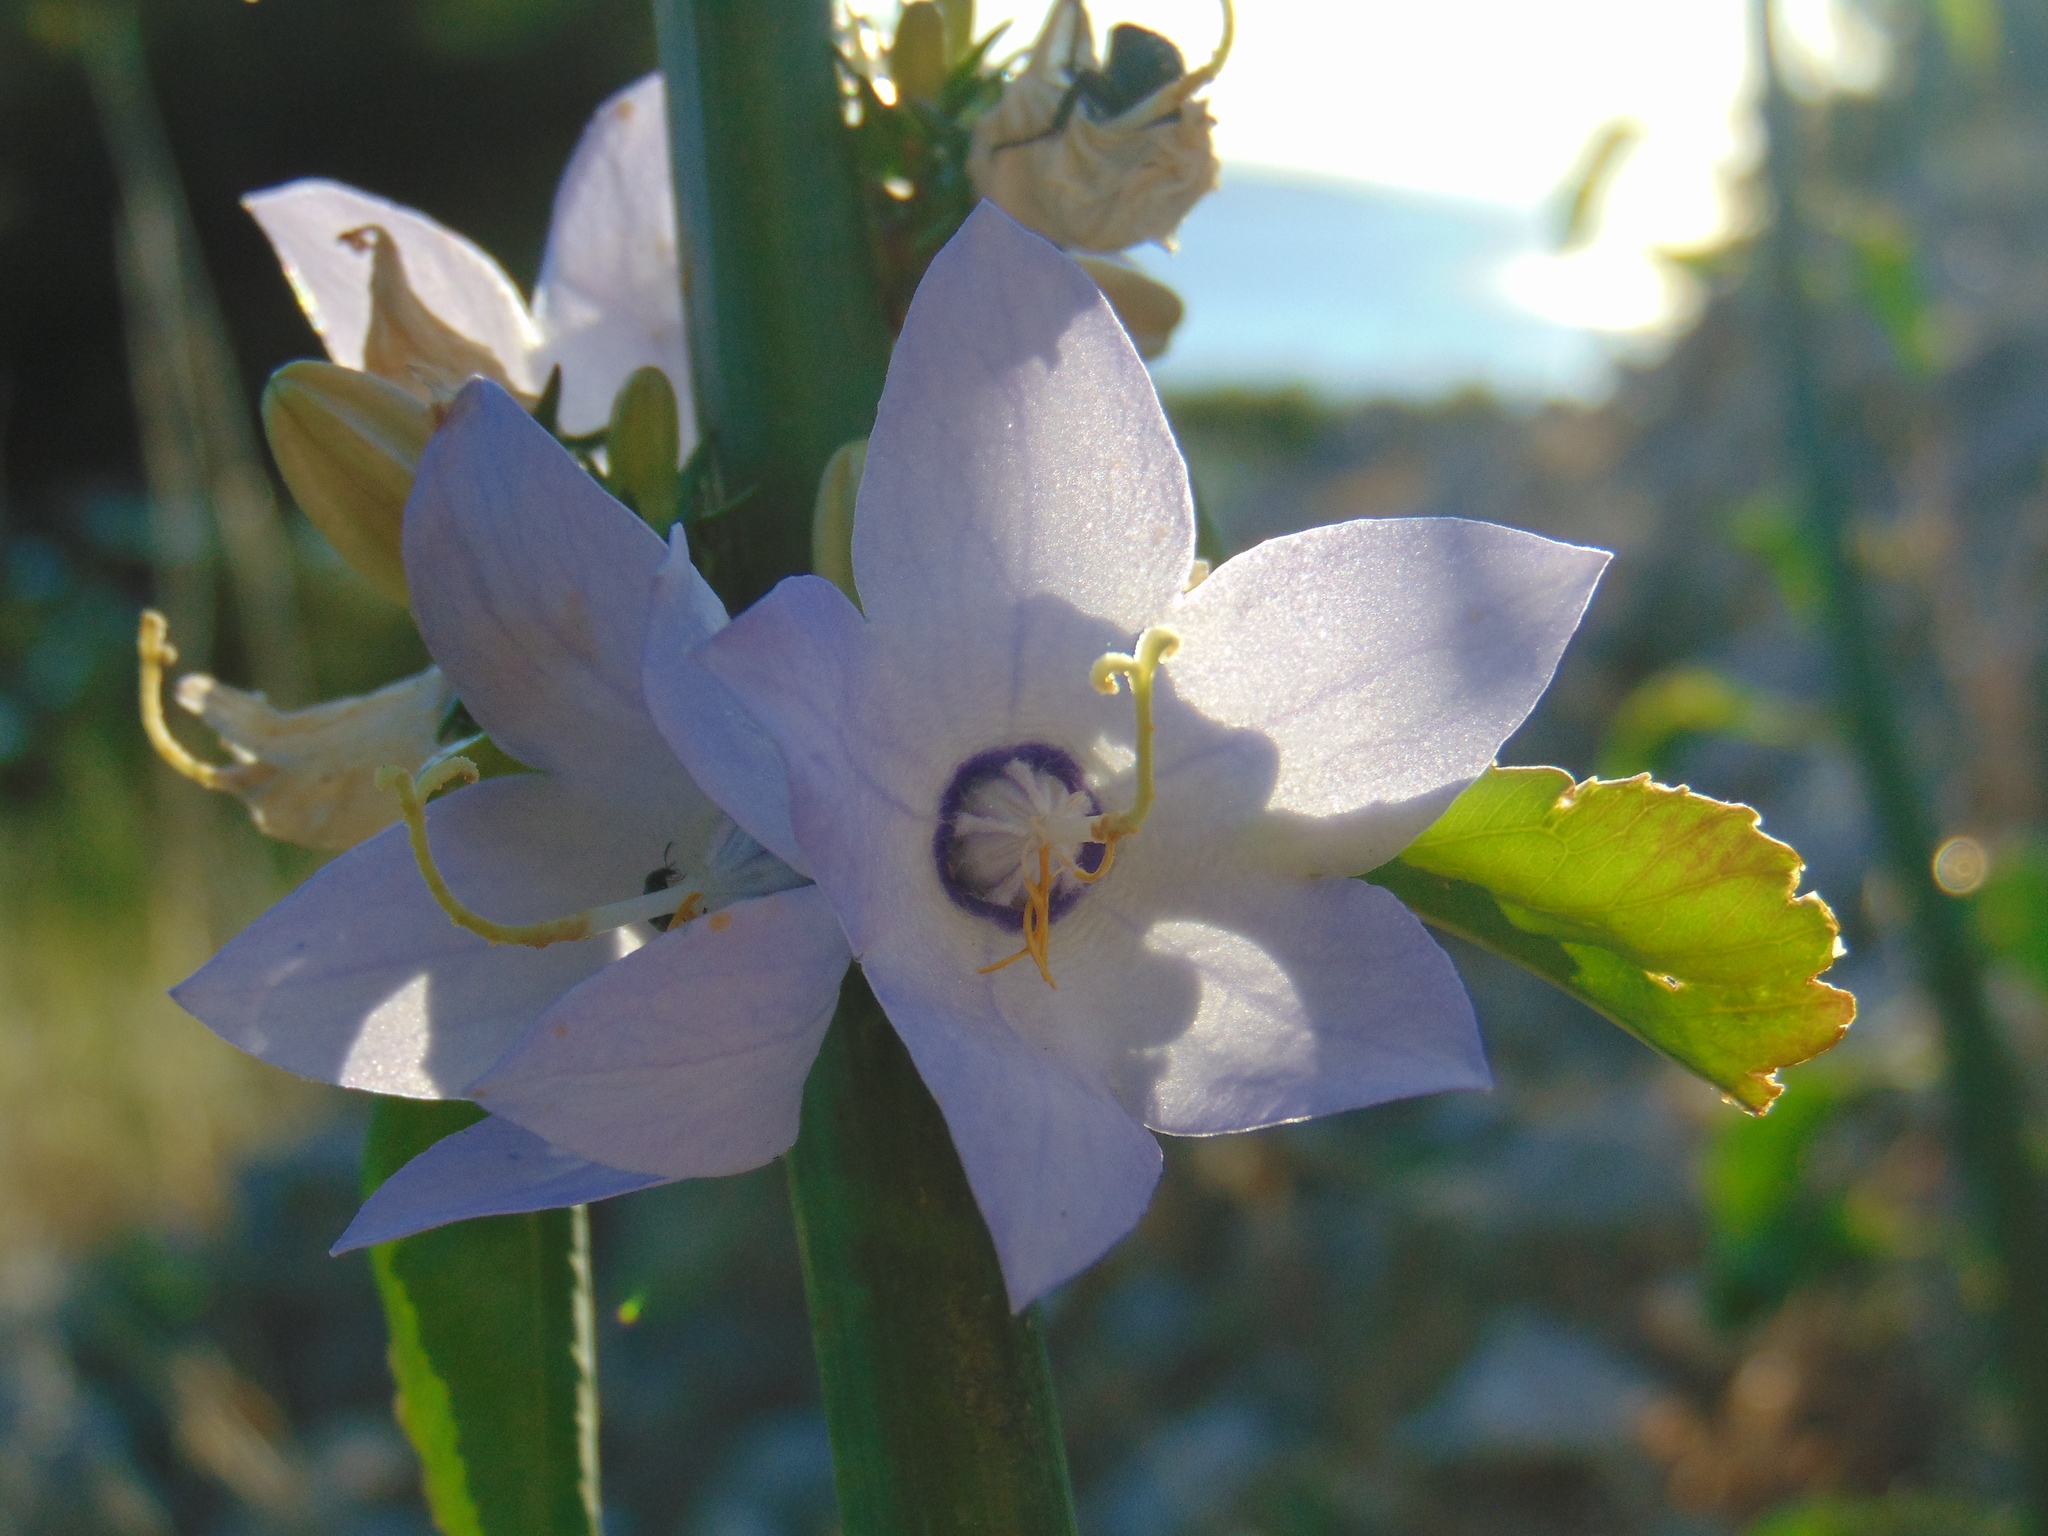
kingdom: Plantae
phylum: Tracheophyta
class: Magnoliopsida
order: Asterales
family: Campanulaceae
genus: Campanula
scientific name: Campanula pyramidalis
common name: Chimney bellflower
